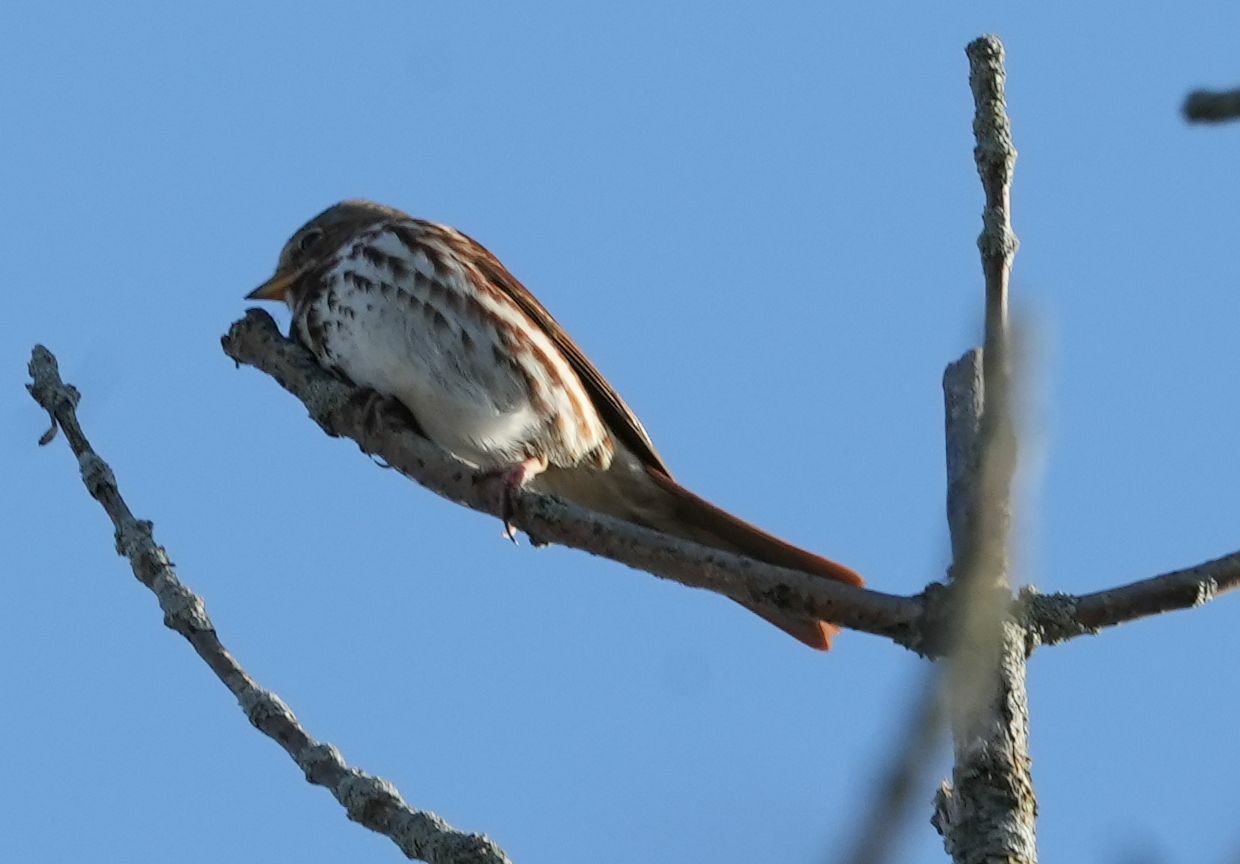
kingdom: Animalia
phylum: Chordata
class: Aves
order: Passeriformes
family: Passerellidae
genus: Passerella
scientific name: Passerella iliaca
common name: Fox sparrow
